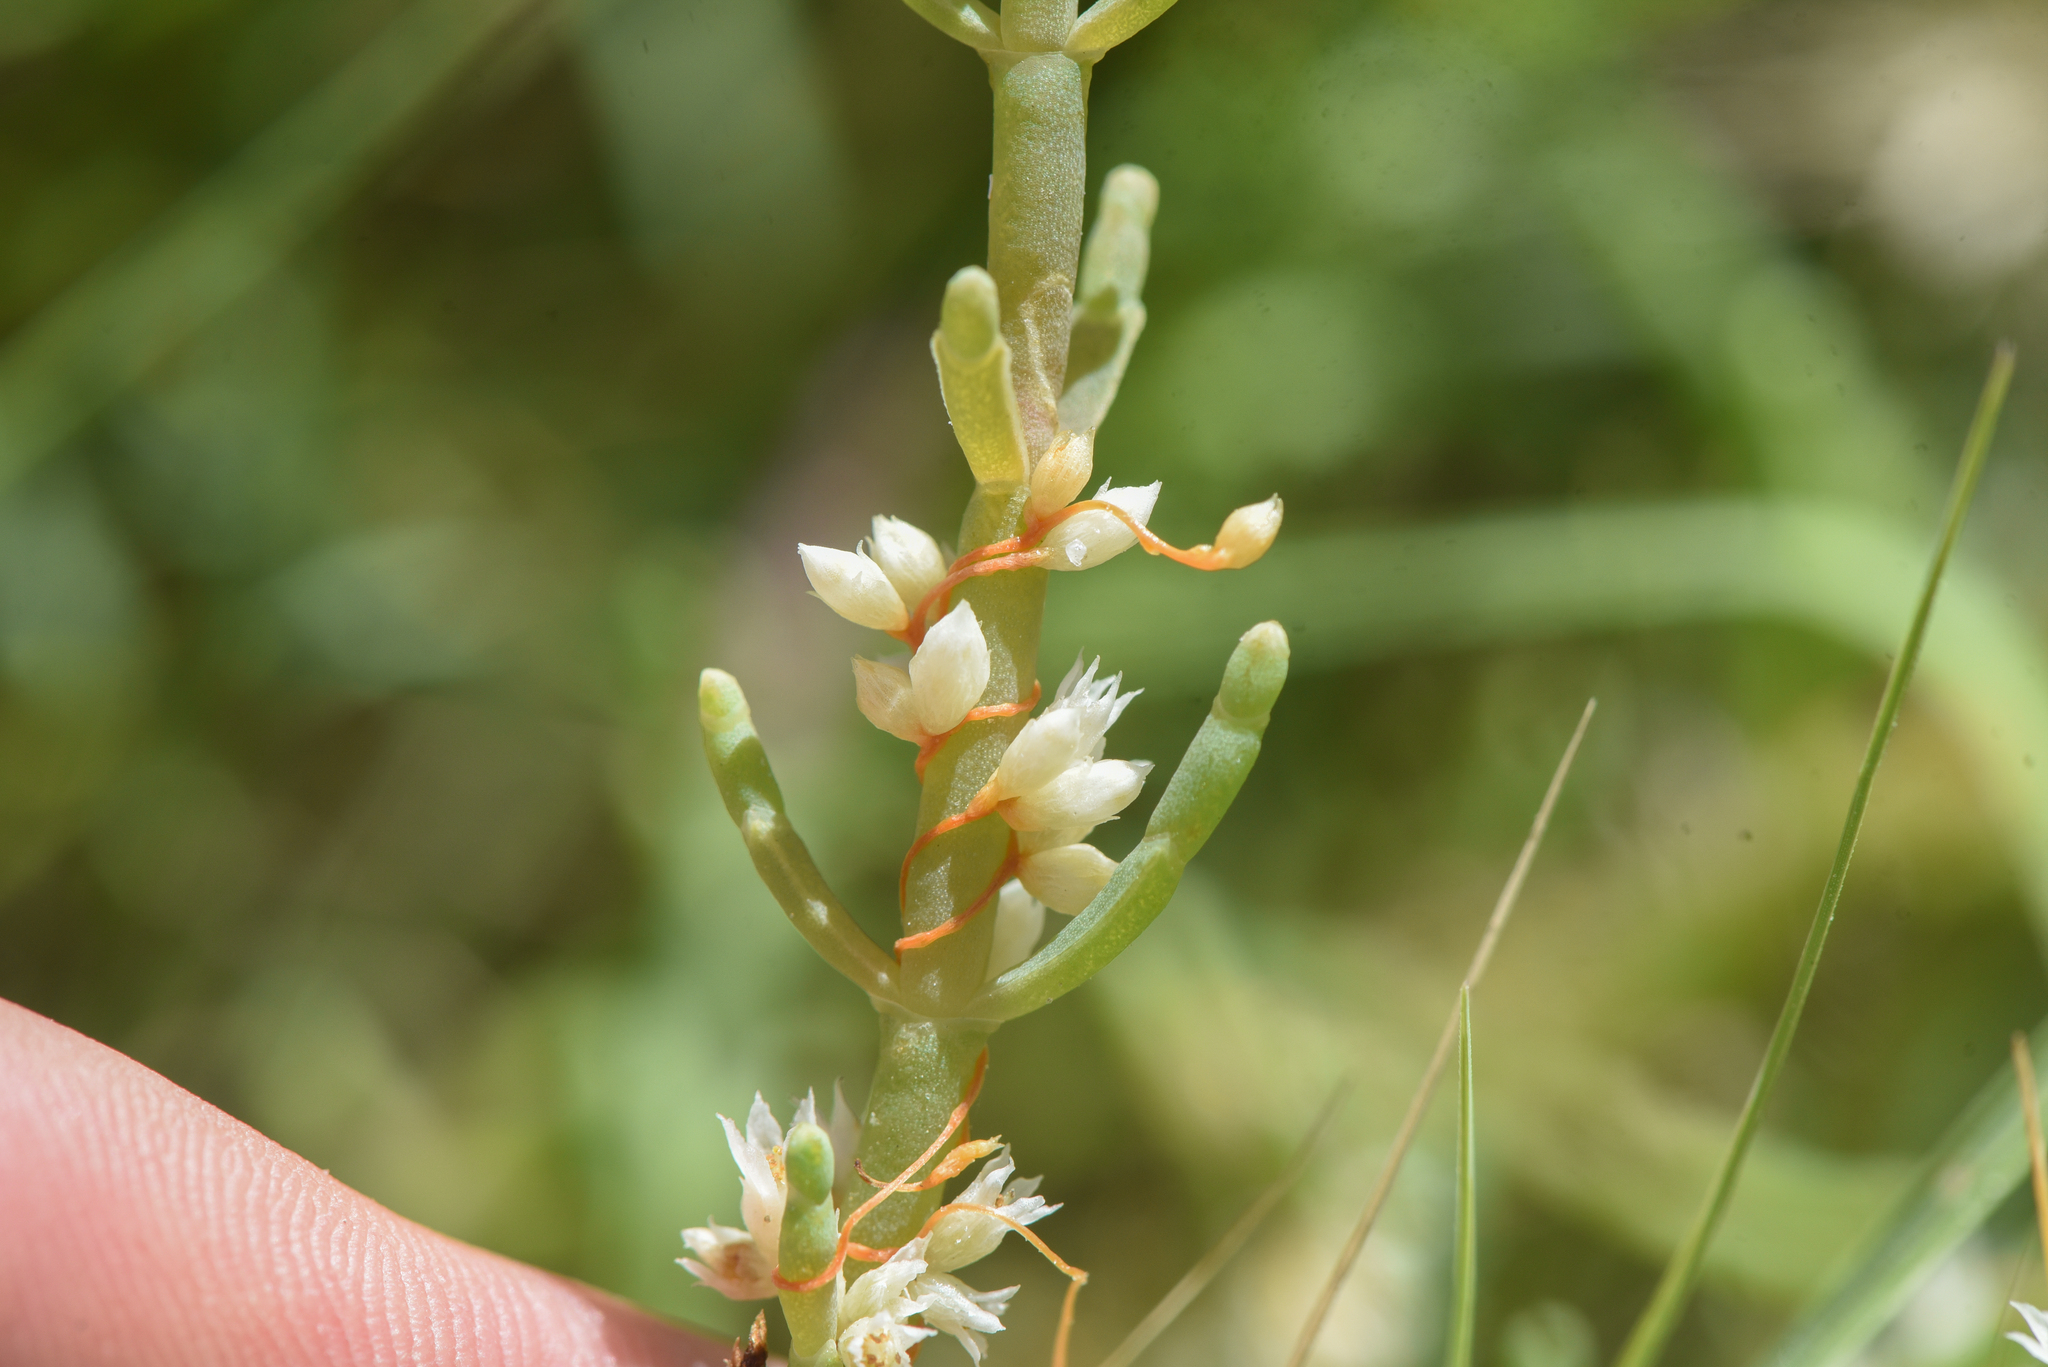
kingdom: Plantae
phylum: Tracheophyta
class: Magnoliopsida
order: Solanales
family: Convolvulaceae
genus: Cuscuta
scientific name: Cuscuta pacifica
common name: Large saltmarsh dodder
